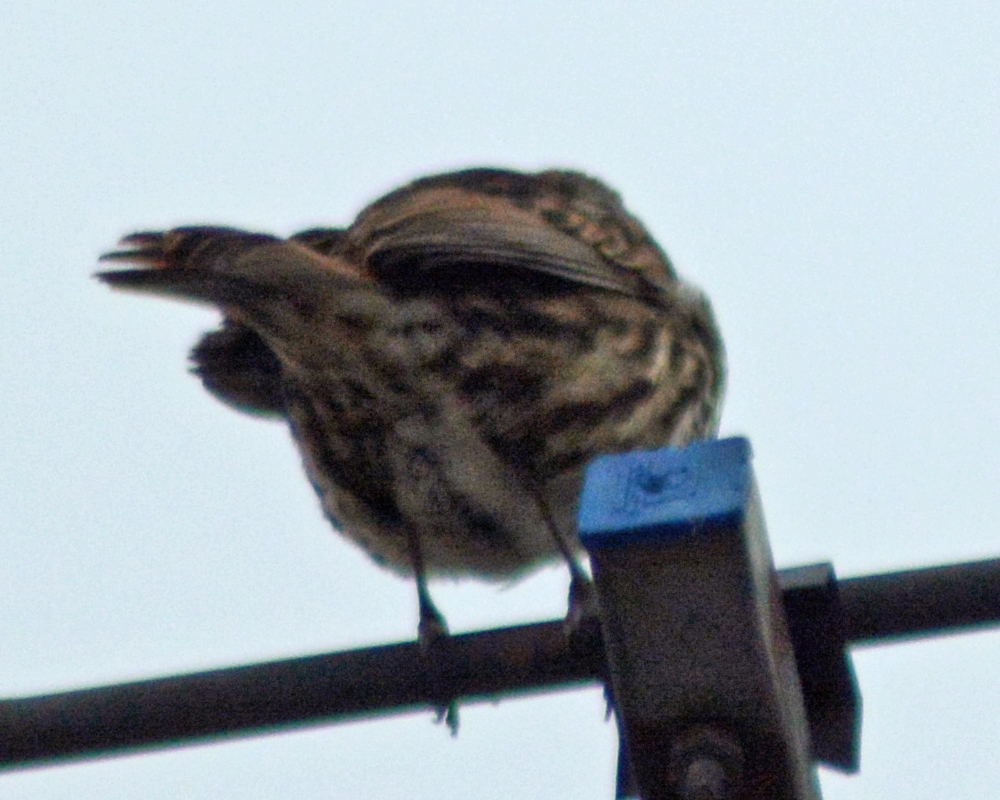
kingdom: Animalia
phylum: Chordata
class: Aves
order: Passeriformes
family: Passerellidae
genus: Melospiza
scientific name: Melospiza melodia
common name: Song sparrow
